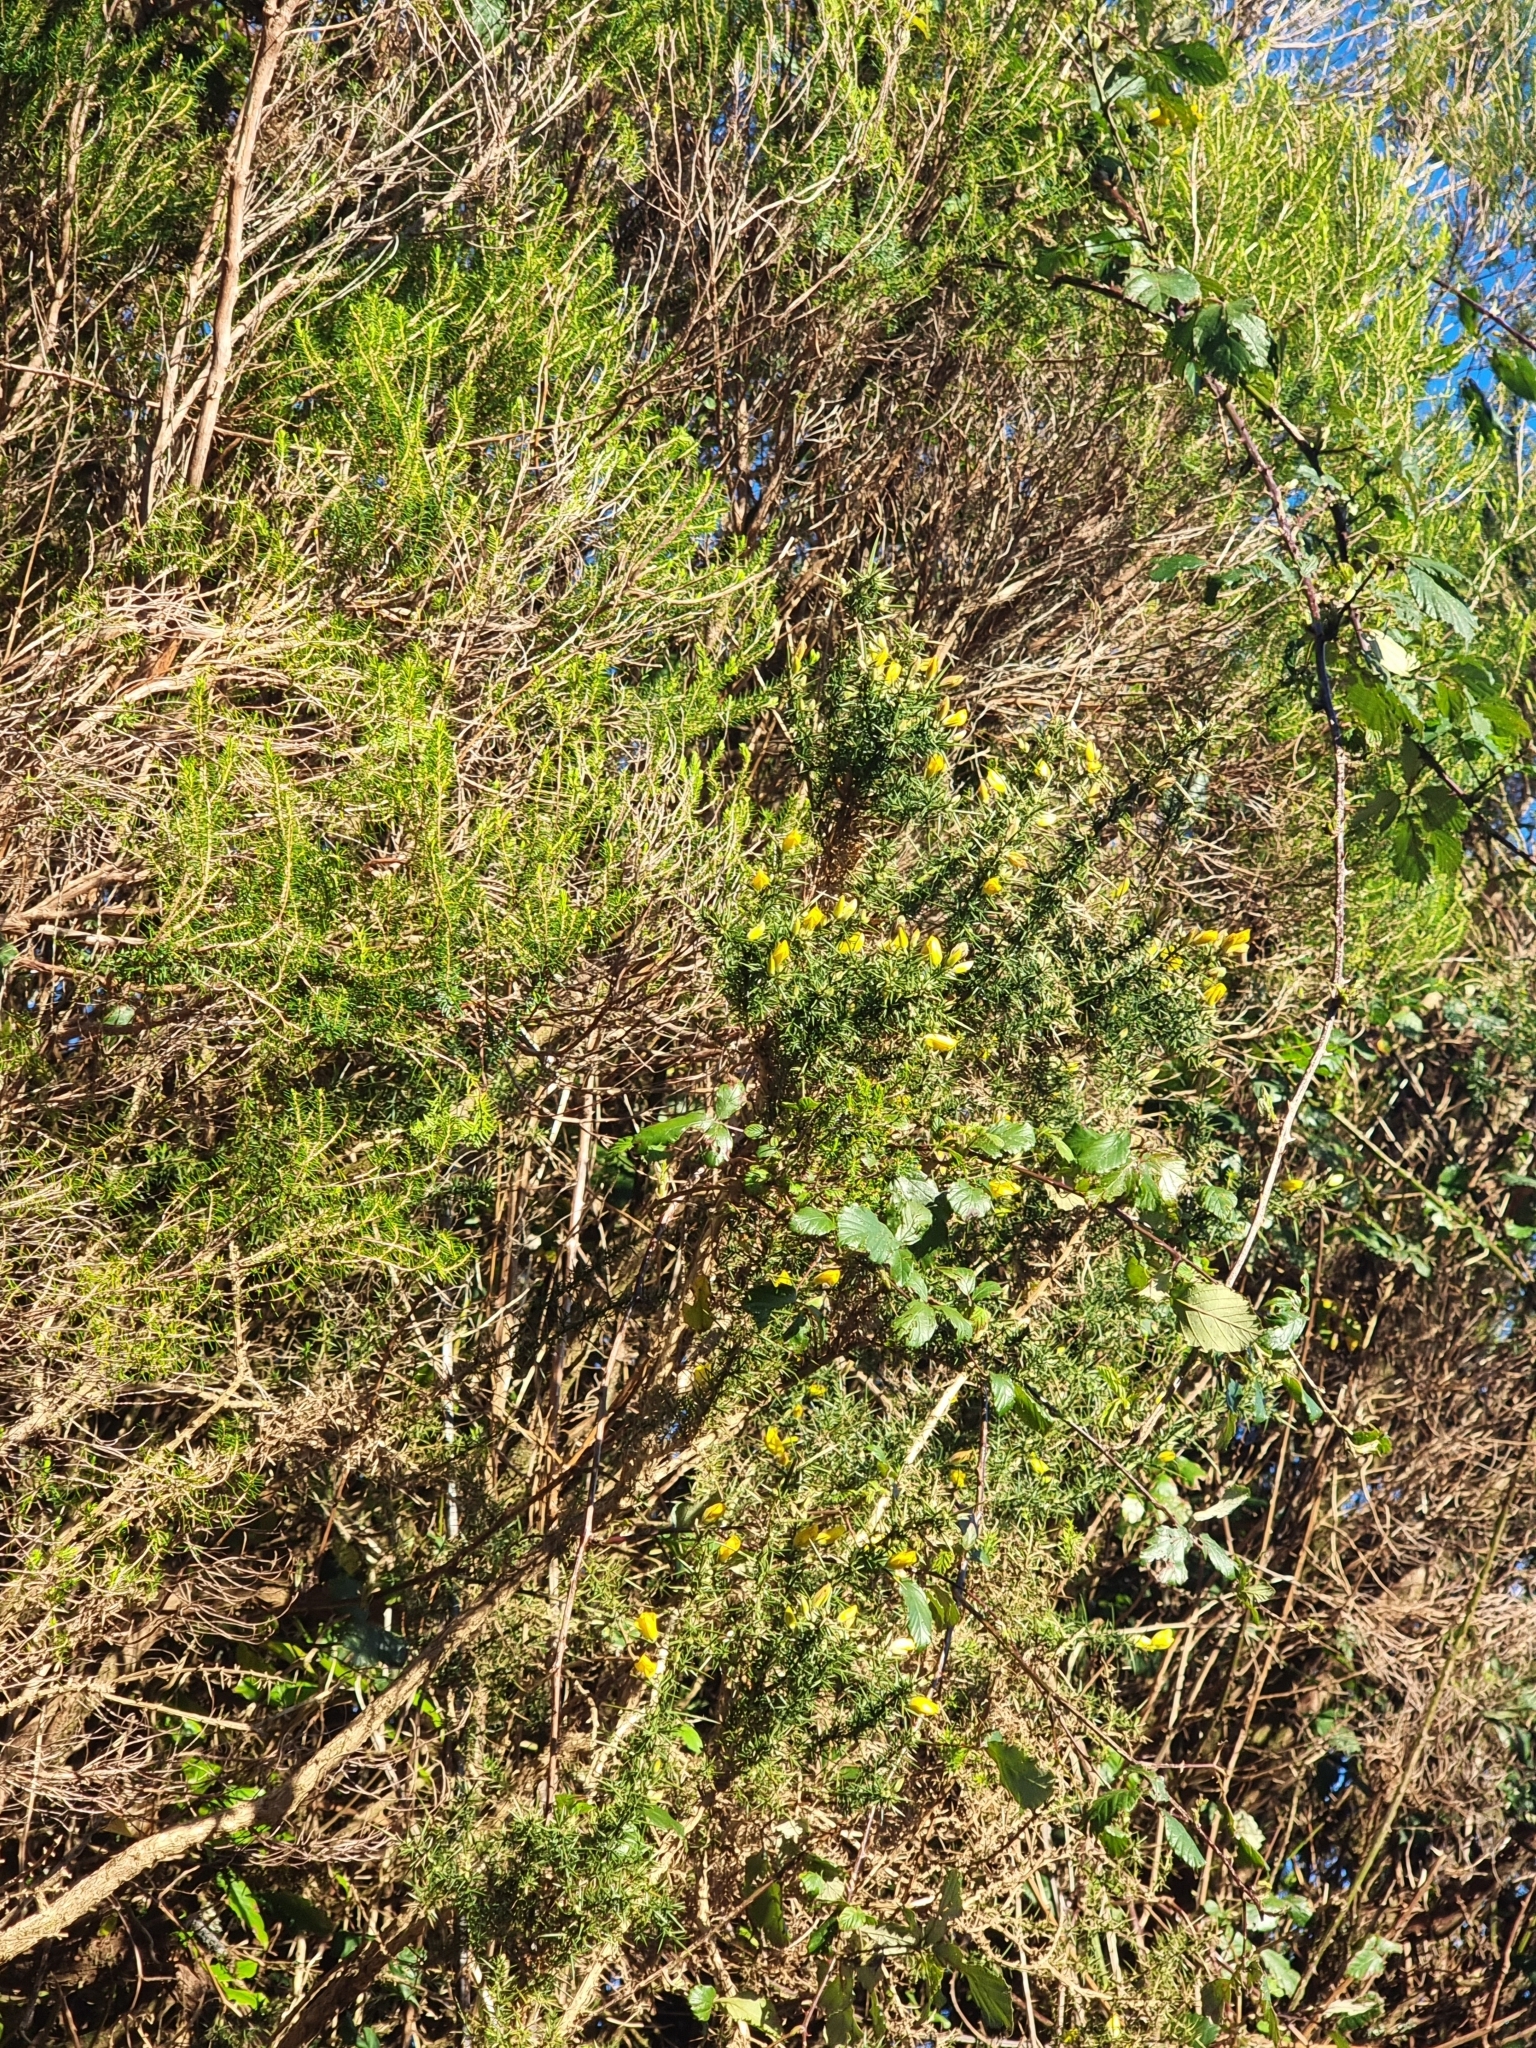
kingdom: Plantae
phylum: Tracheophyta
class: Magnoliopsida
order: Fabales
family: Fabaceae
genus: Ulex
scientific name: Ulex europaeus
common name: Common gorse
